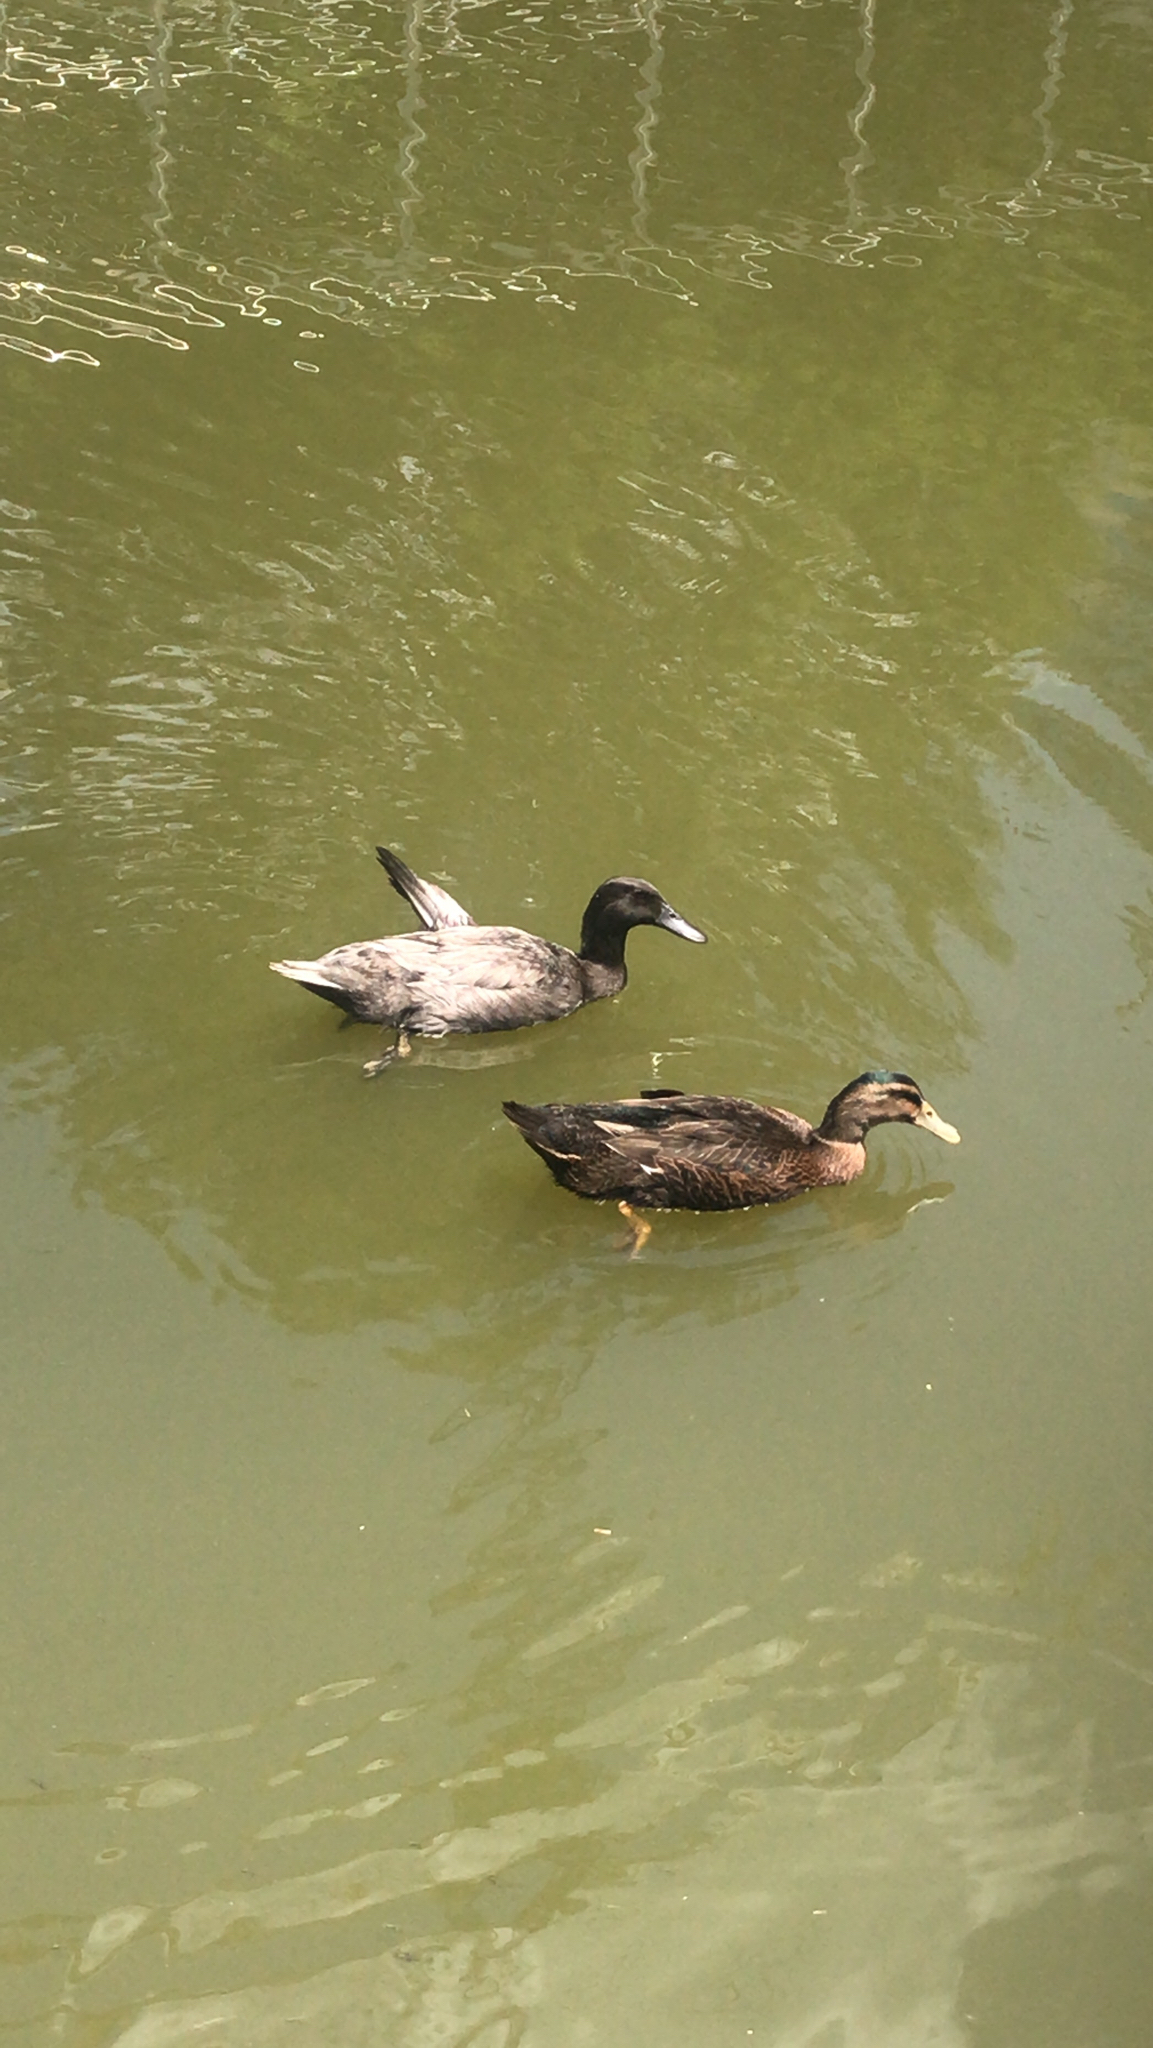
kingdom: Animalia
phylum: Chordata
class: Aves
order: Anseriformes
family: Anatidae
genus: Anas
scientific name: Anas platyrhynchos
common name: Mallard
